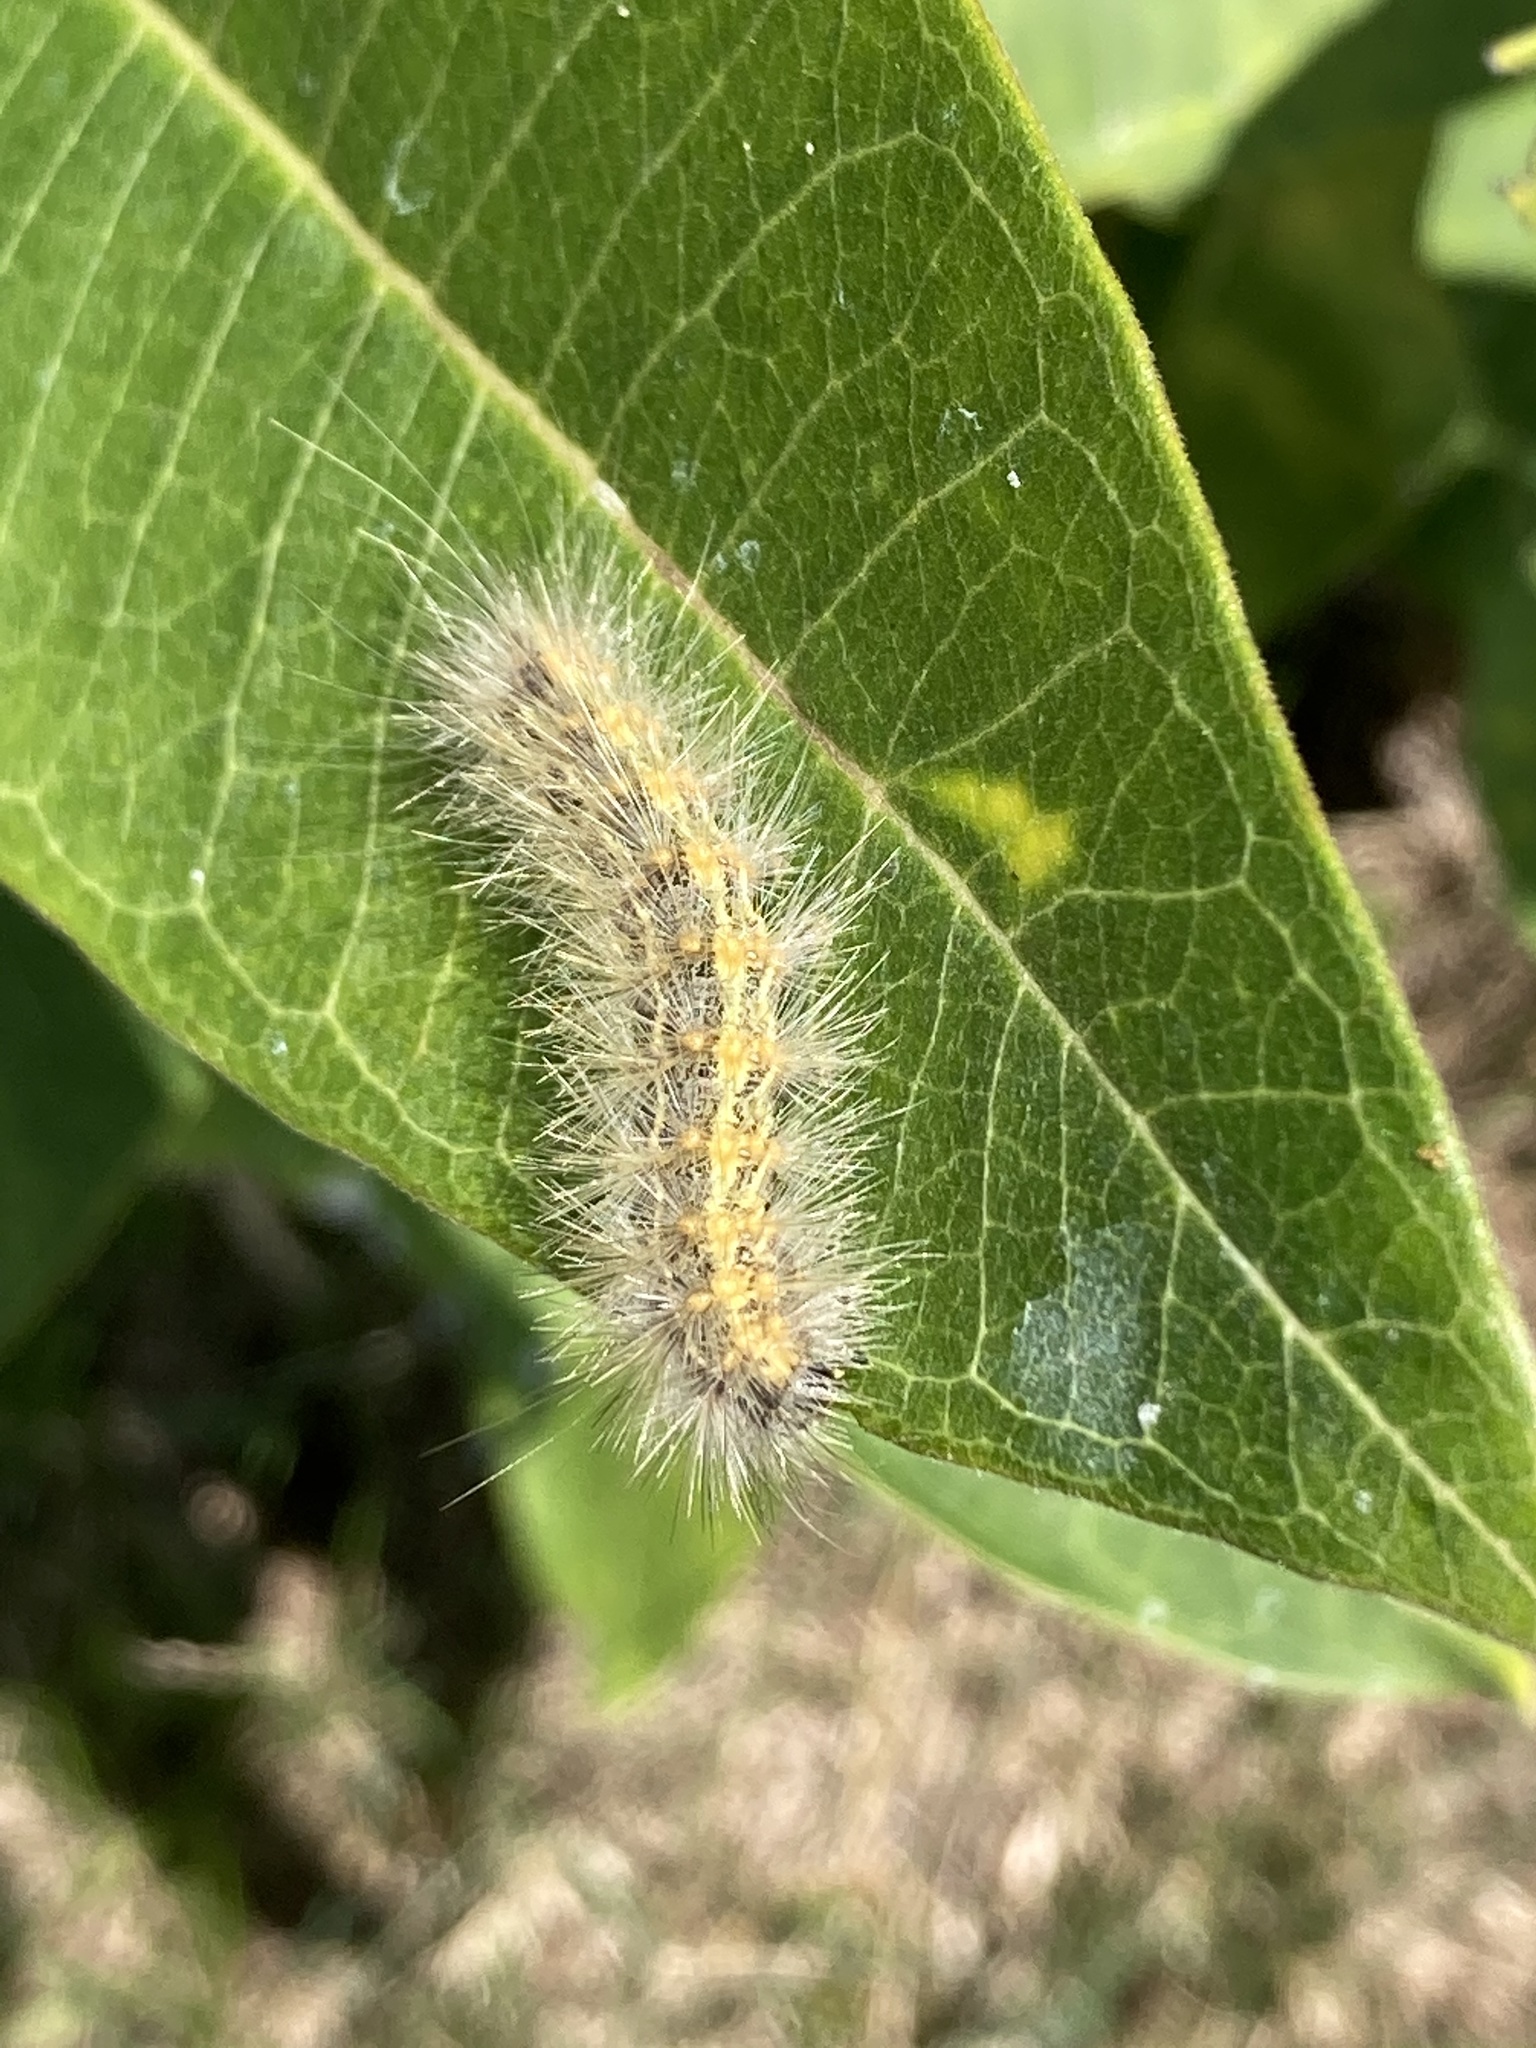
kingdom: Animalia
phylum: Arthropoda
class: Insecta
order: Lepidoptera
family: Erebidae
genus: Estigmene
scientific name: Estigmene acrea
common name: Salt marsh moth
